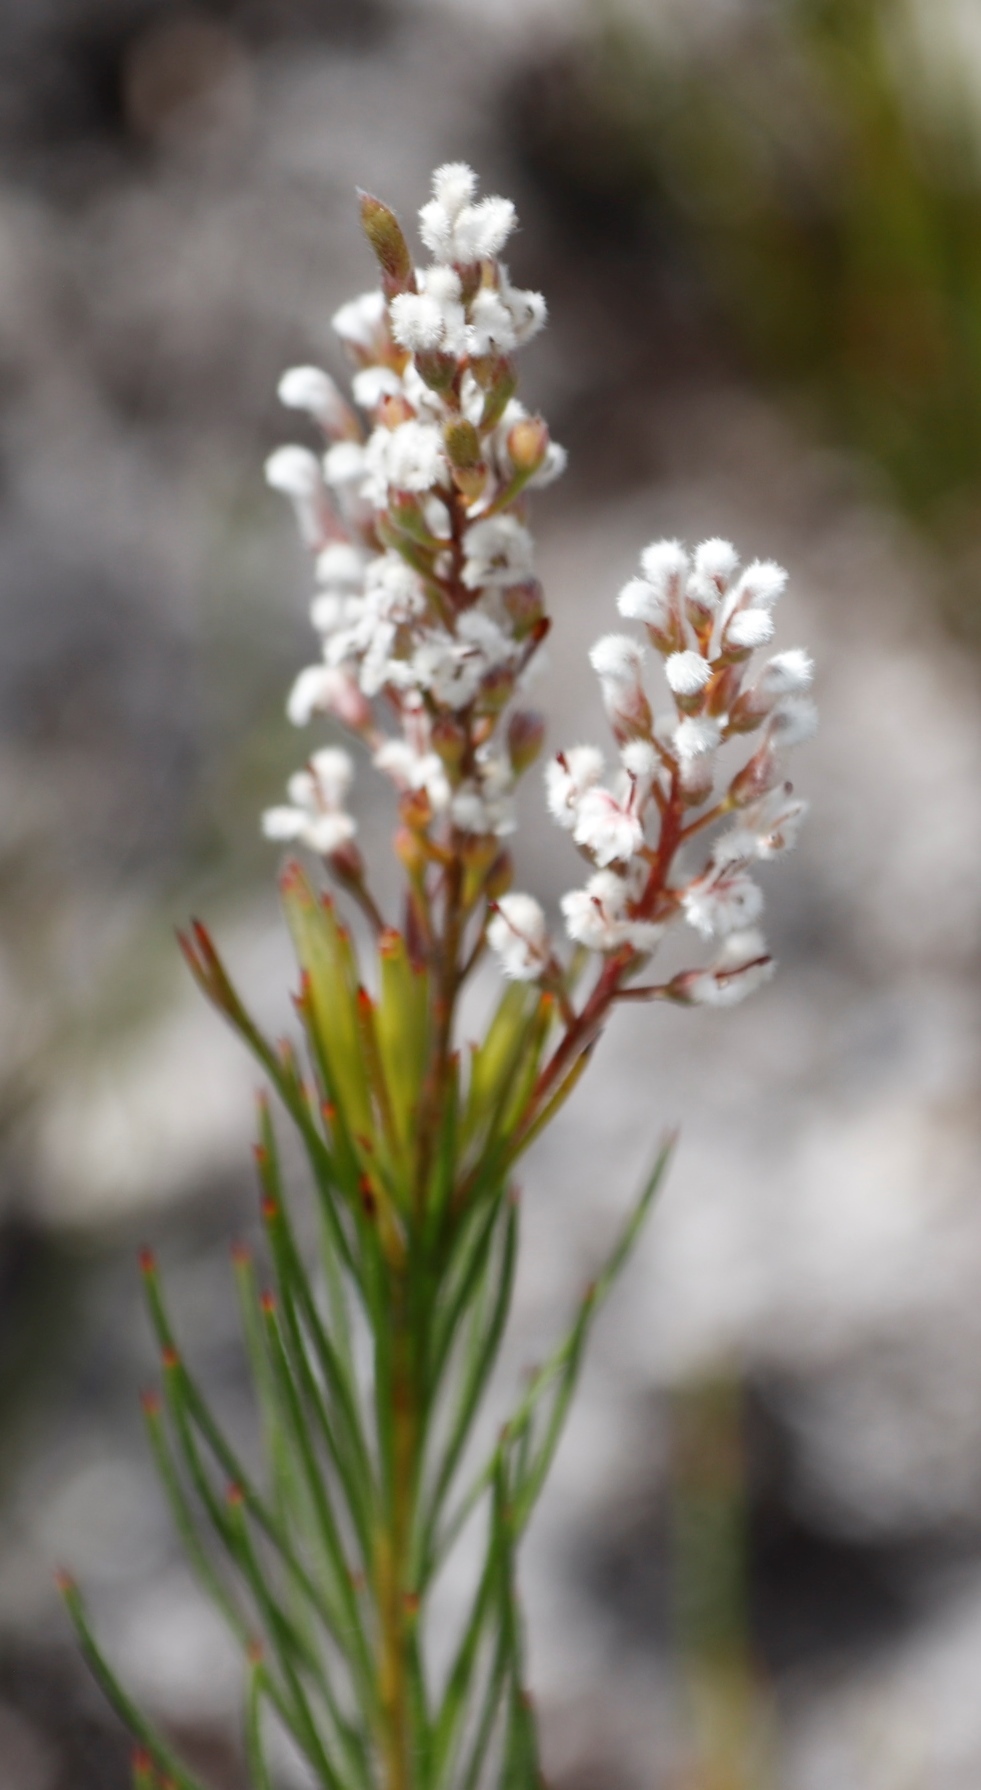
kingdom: Plantae
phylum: Tracheophyta
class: Magnoliopsida
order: Proteales
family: Proteaceae
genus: Spatalla
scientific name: Spatalla racemosa
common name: Lax-stalked spoon
